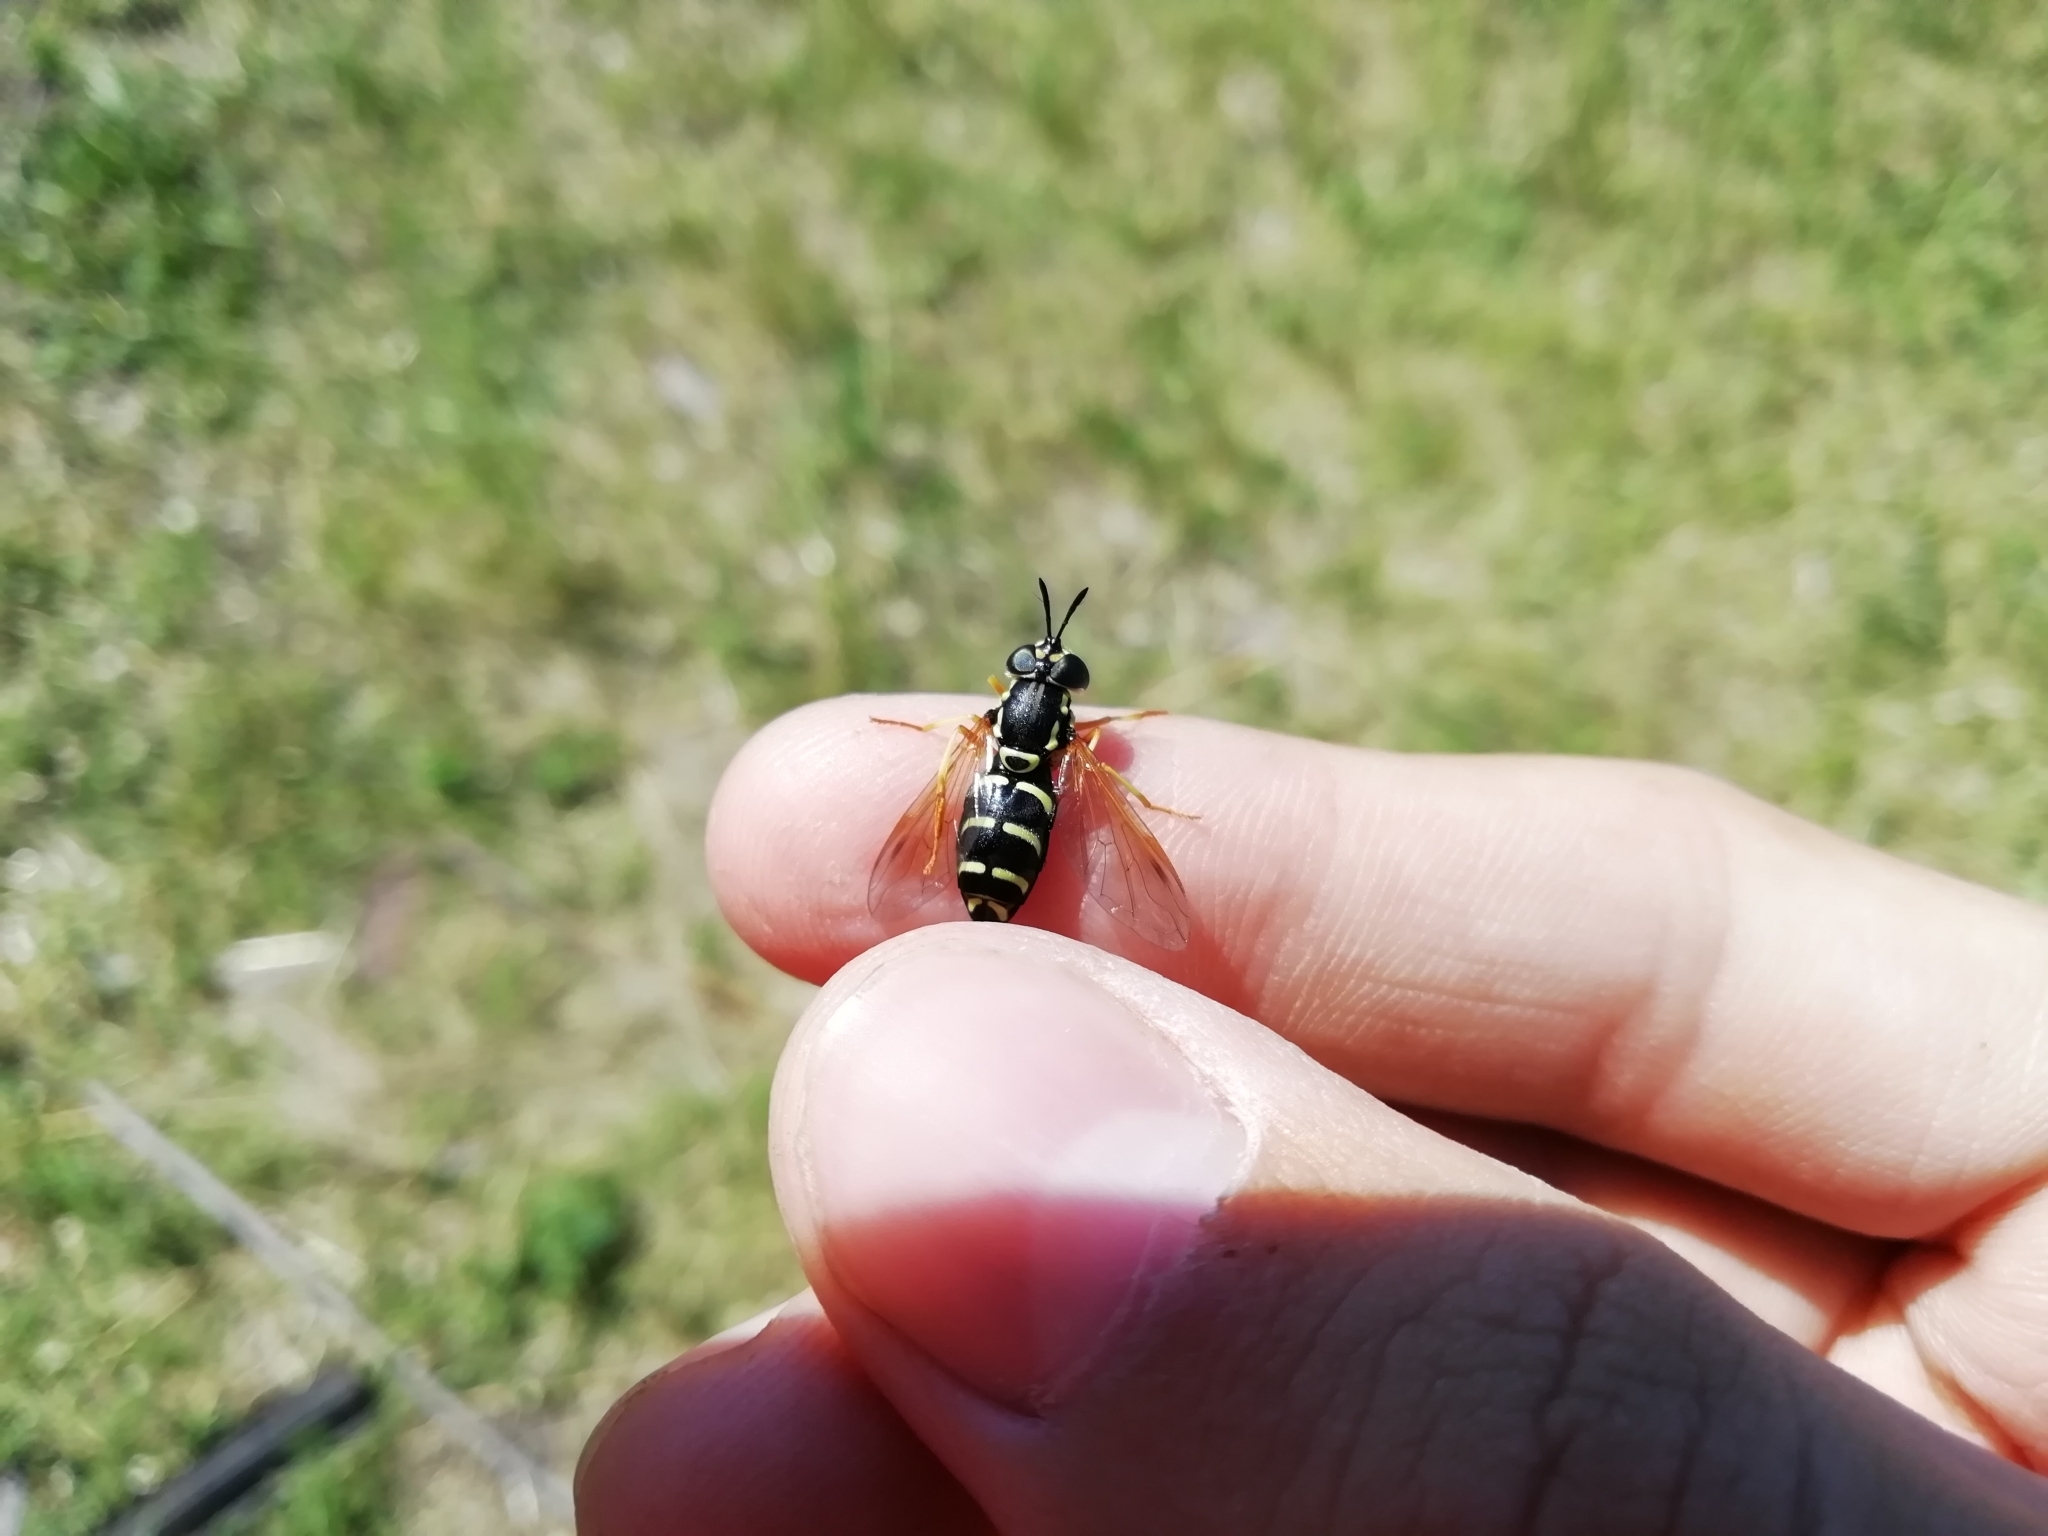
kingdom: Animalia
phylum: Arthropoda
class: Insecta
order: Diptera
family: Syrphidae
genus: Chrysotoxum
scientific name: Chrysotoxum festivum
